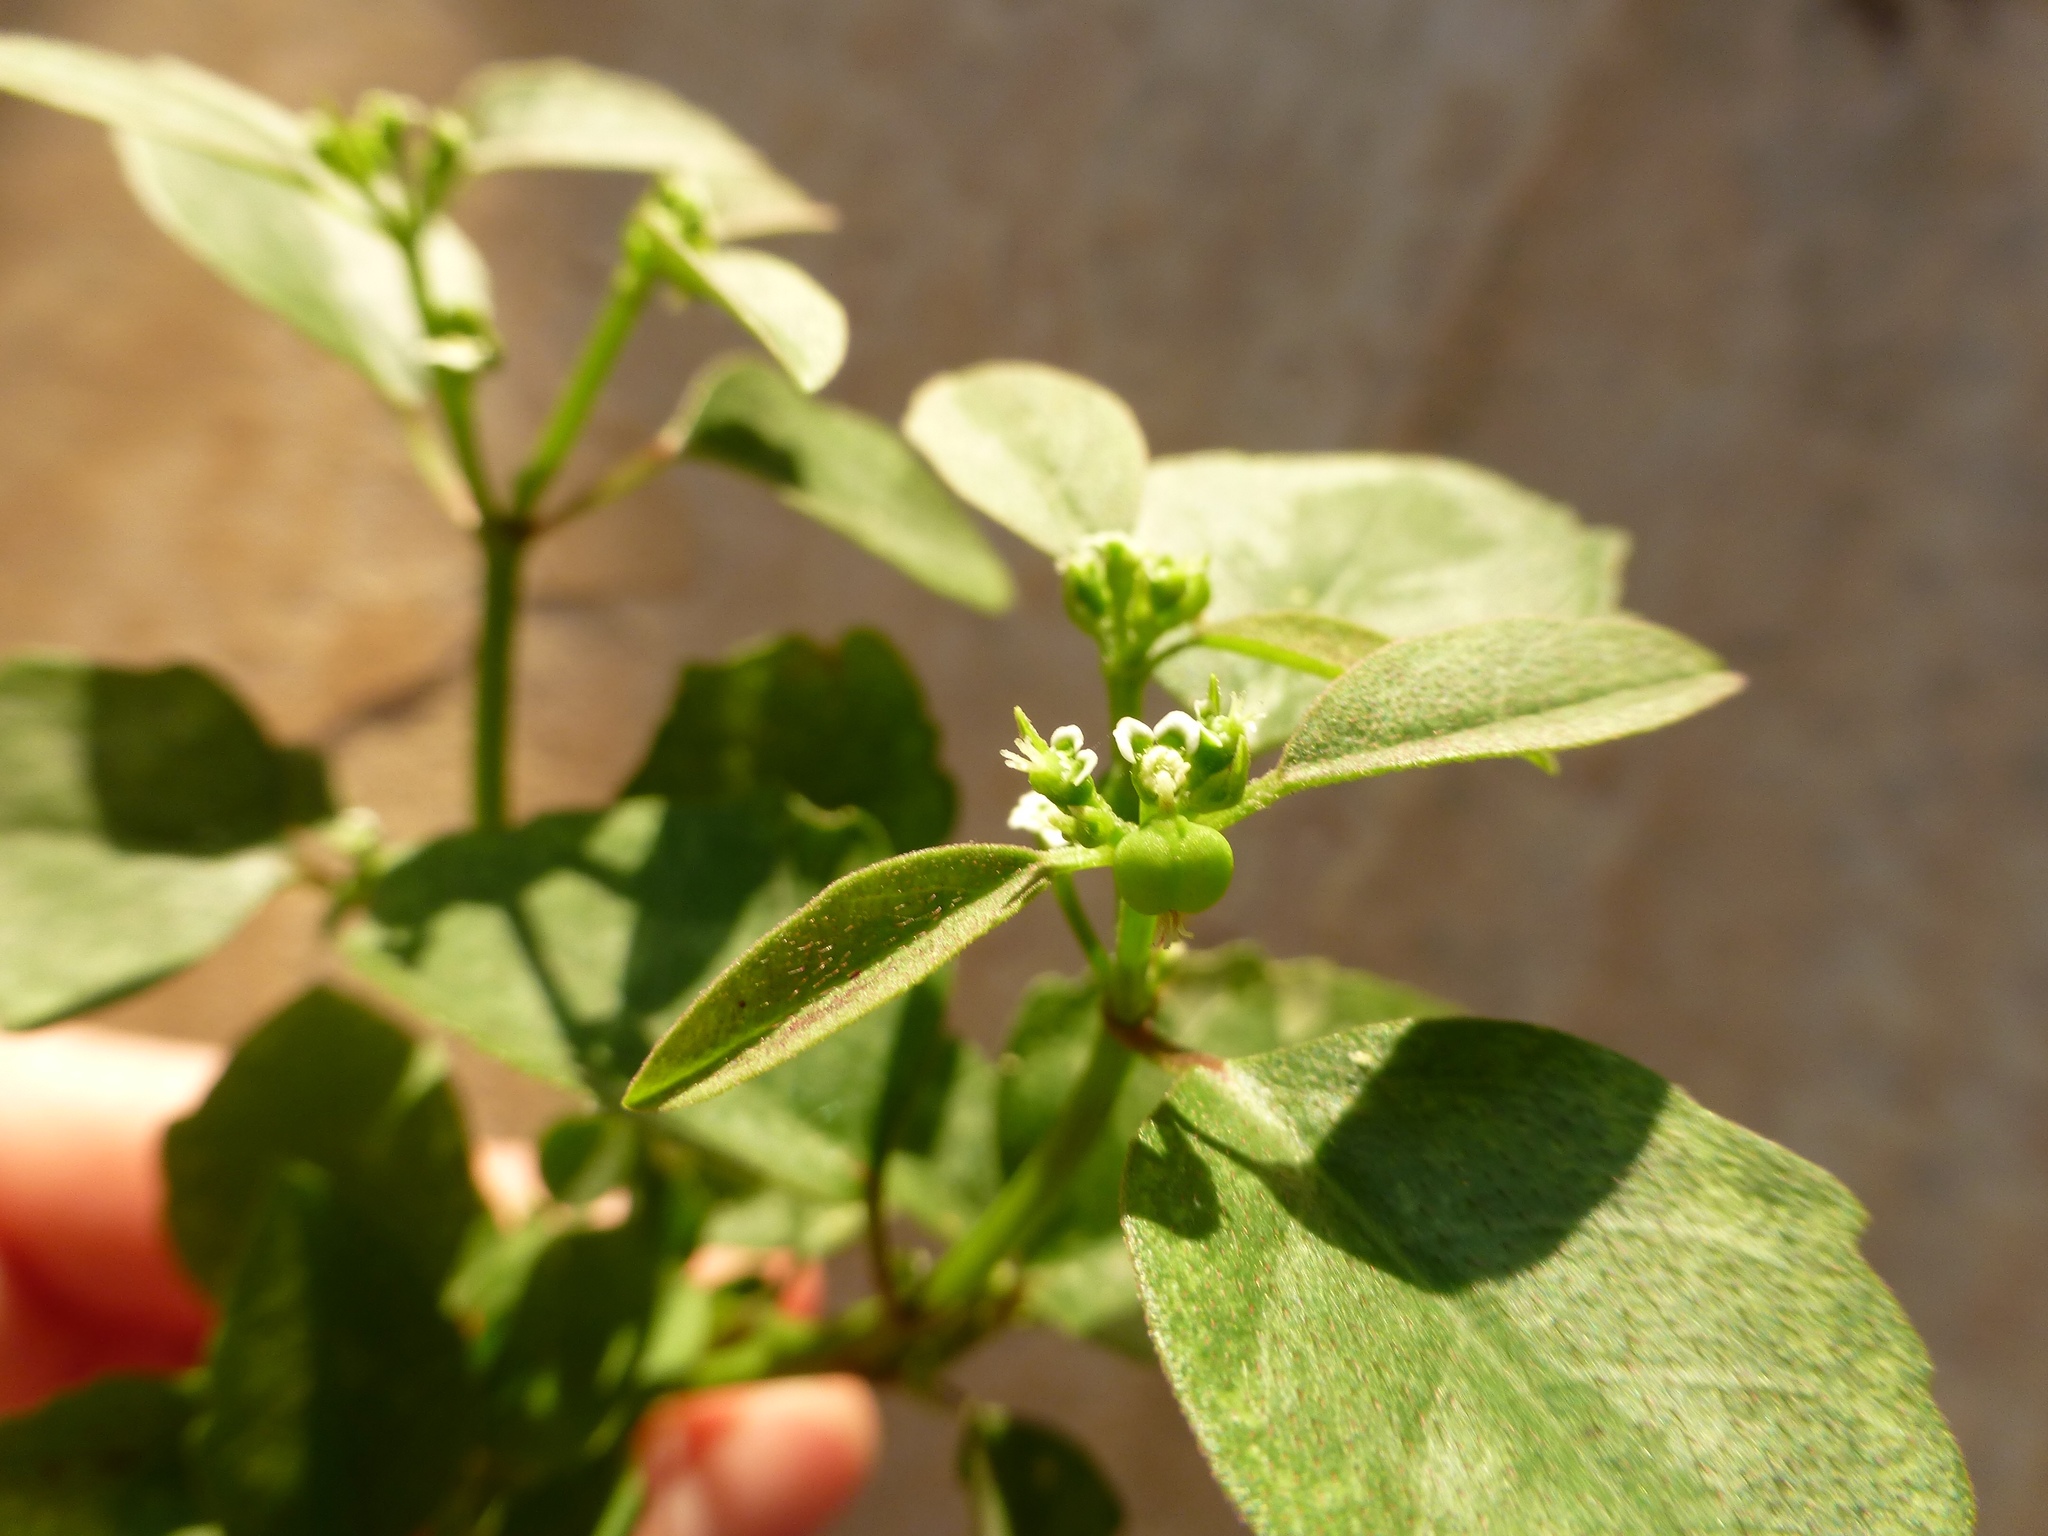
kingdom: Plantae
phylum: Tracheophyta
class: Magnoliopsida
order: Malpighiales
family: Euphorbiaceae
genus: Euphorbia
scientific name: Euphorbia graminea
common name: Grassleaf spurge
